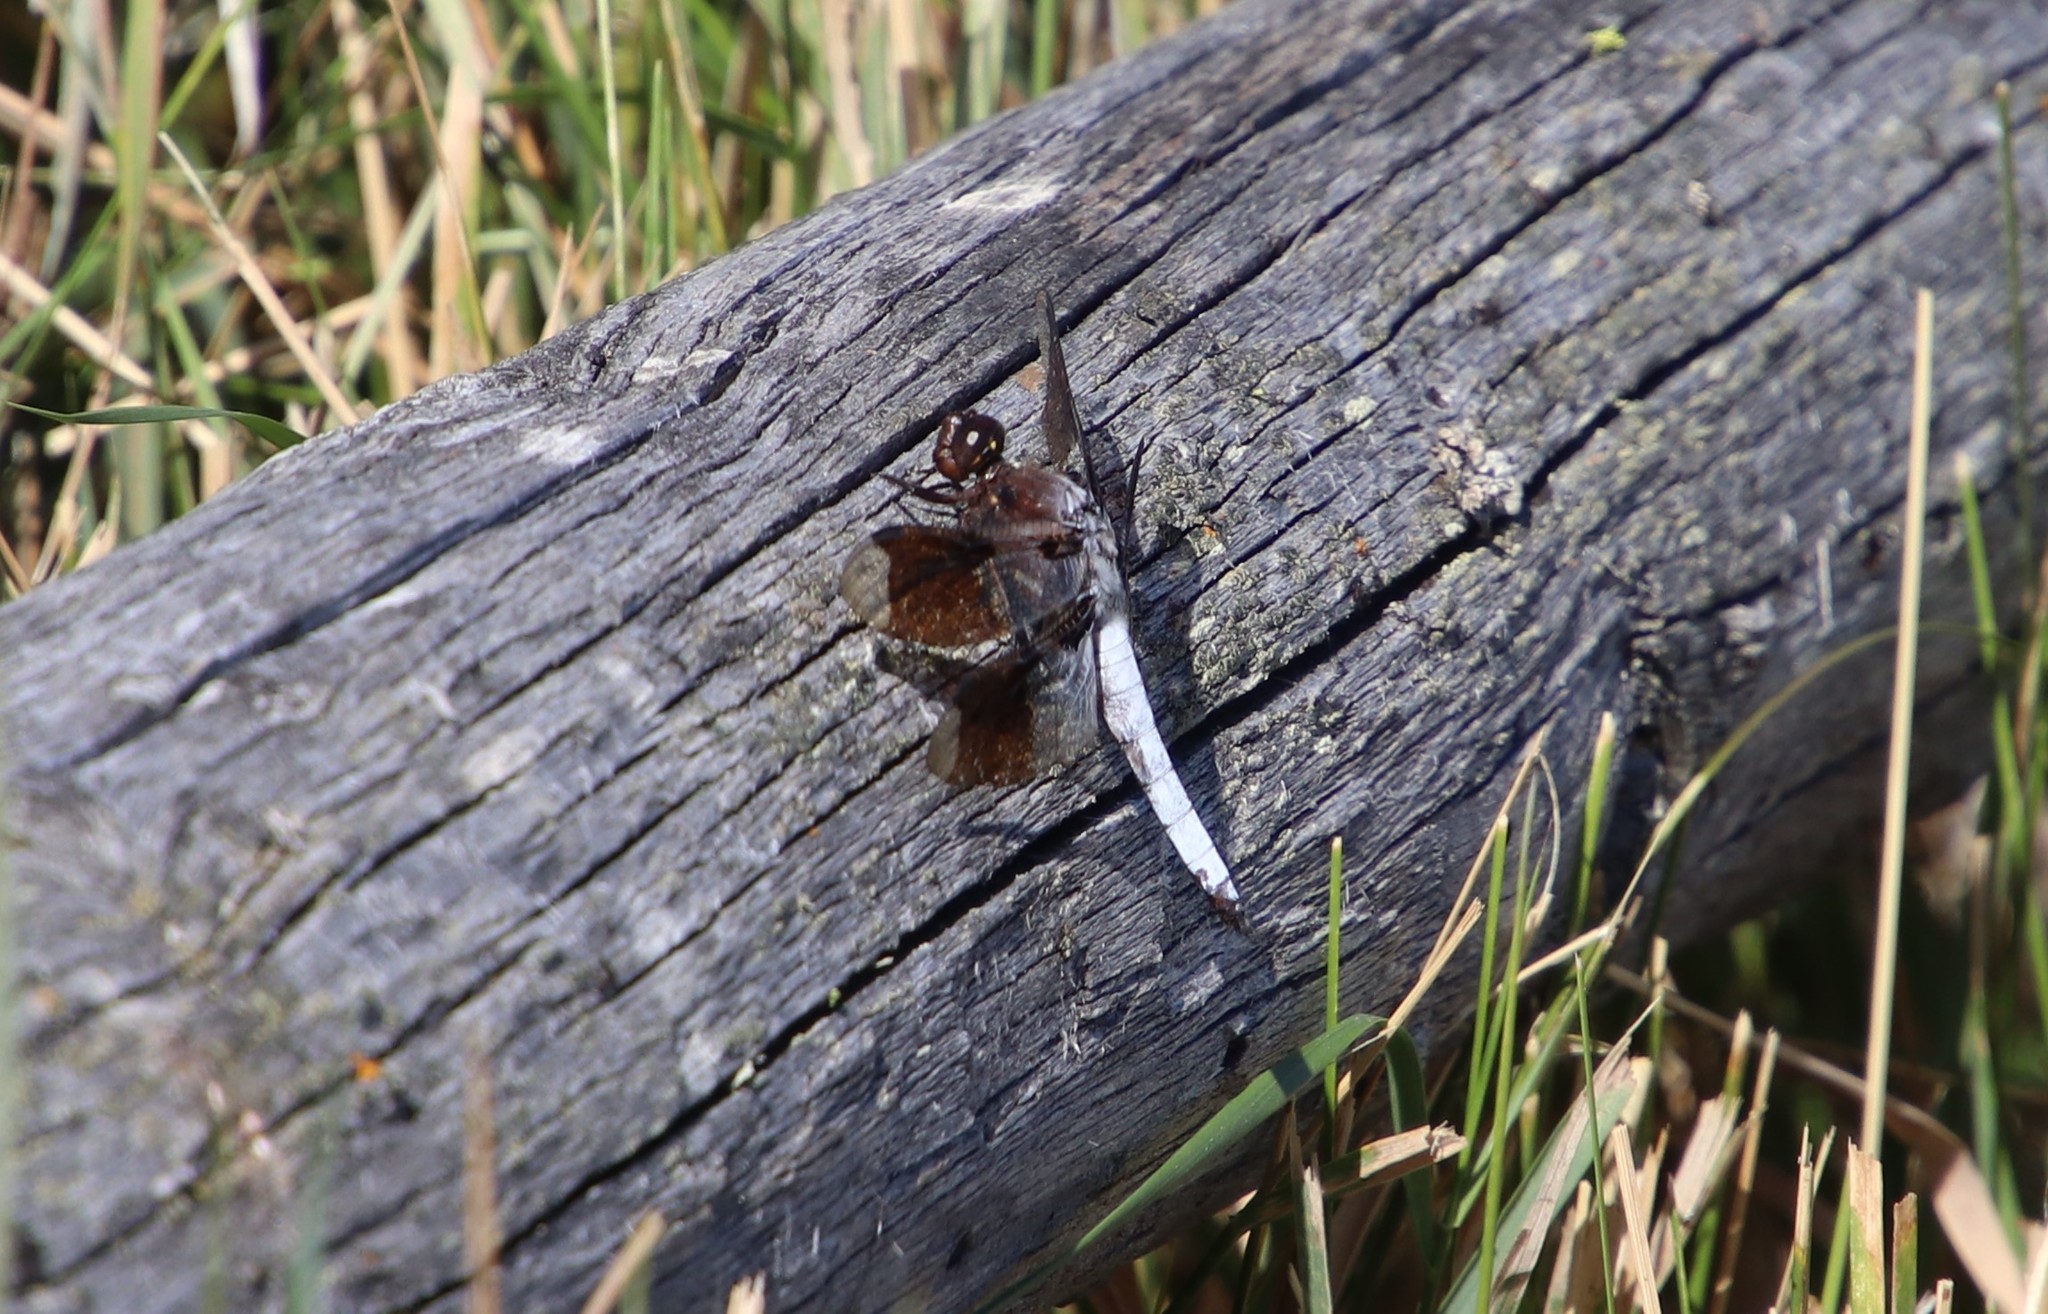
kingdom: Animalia
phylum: Arthropoda
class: Insecta
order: Odonata
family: Libellulidae
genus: Plathemis
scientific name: Plathemis lydia
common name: Common whitetail
